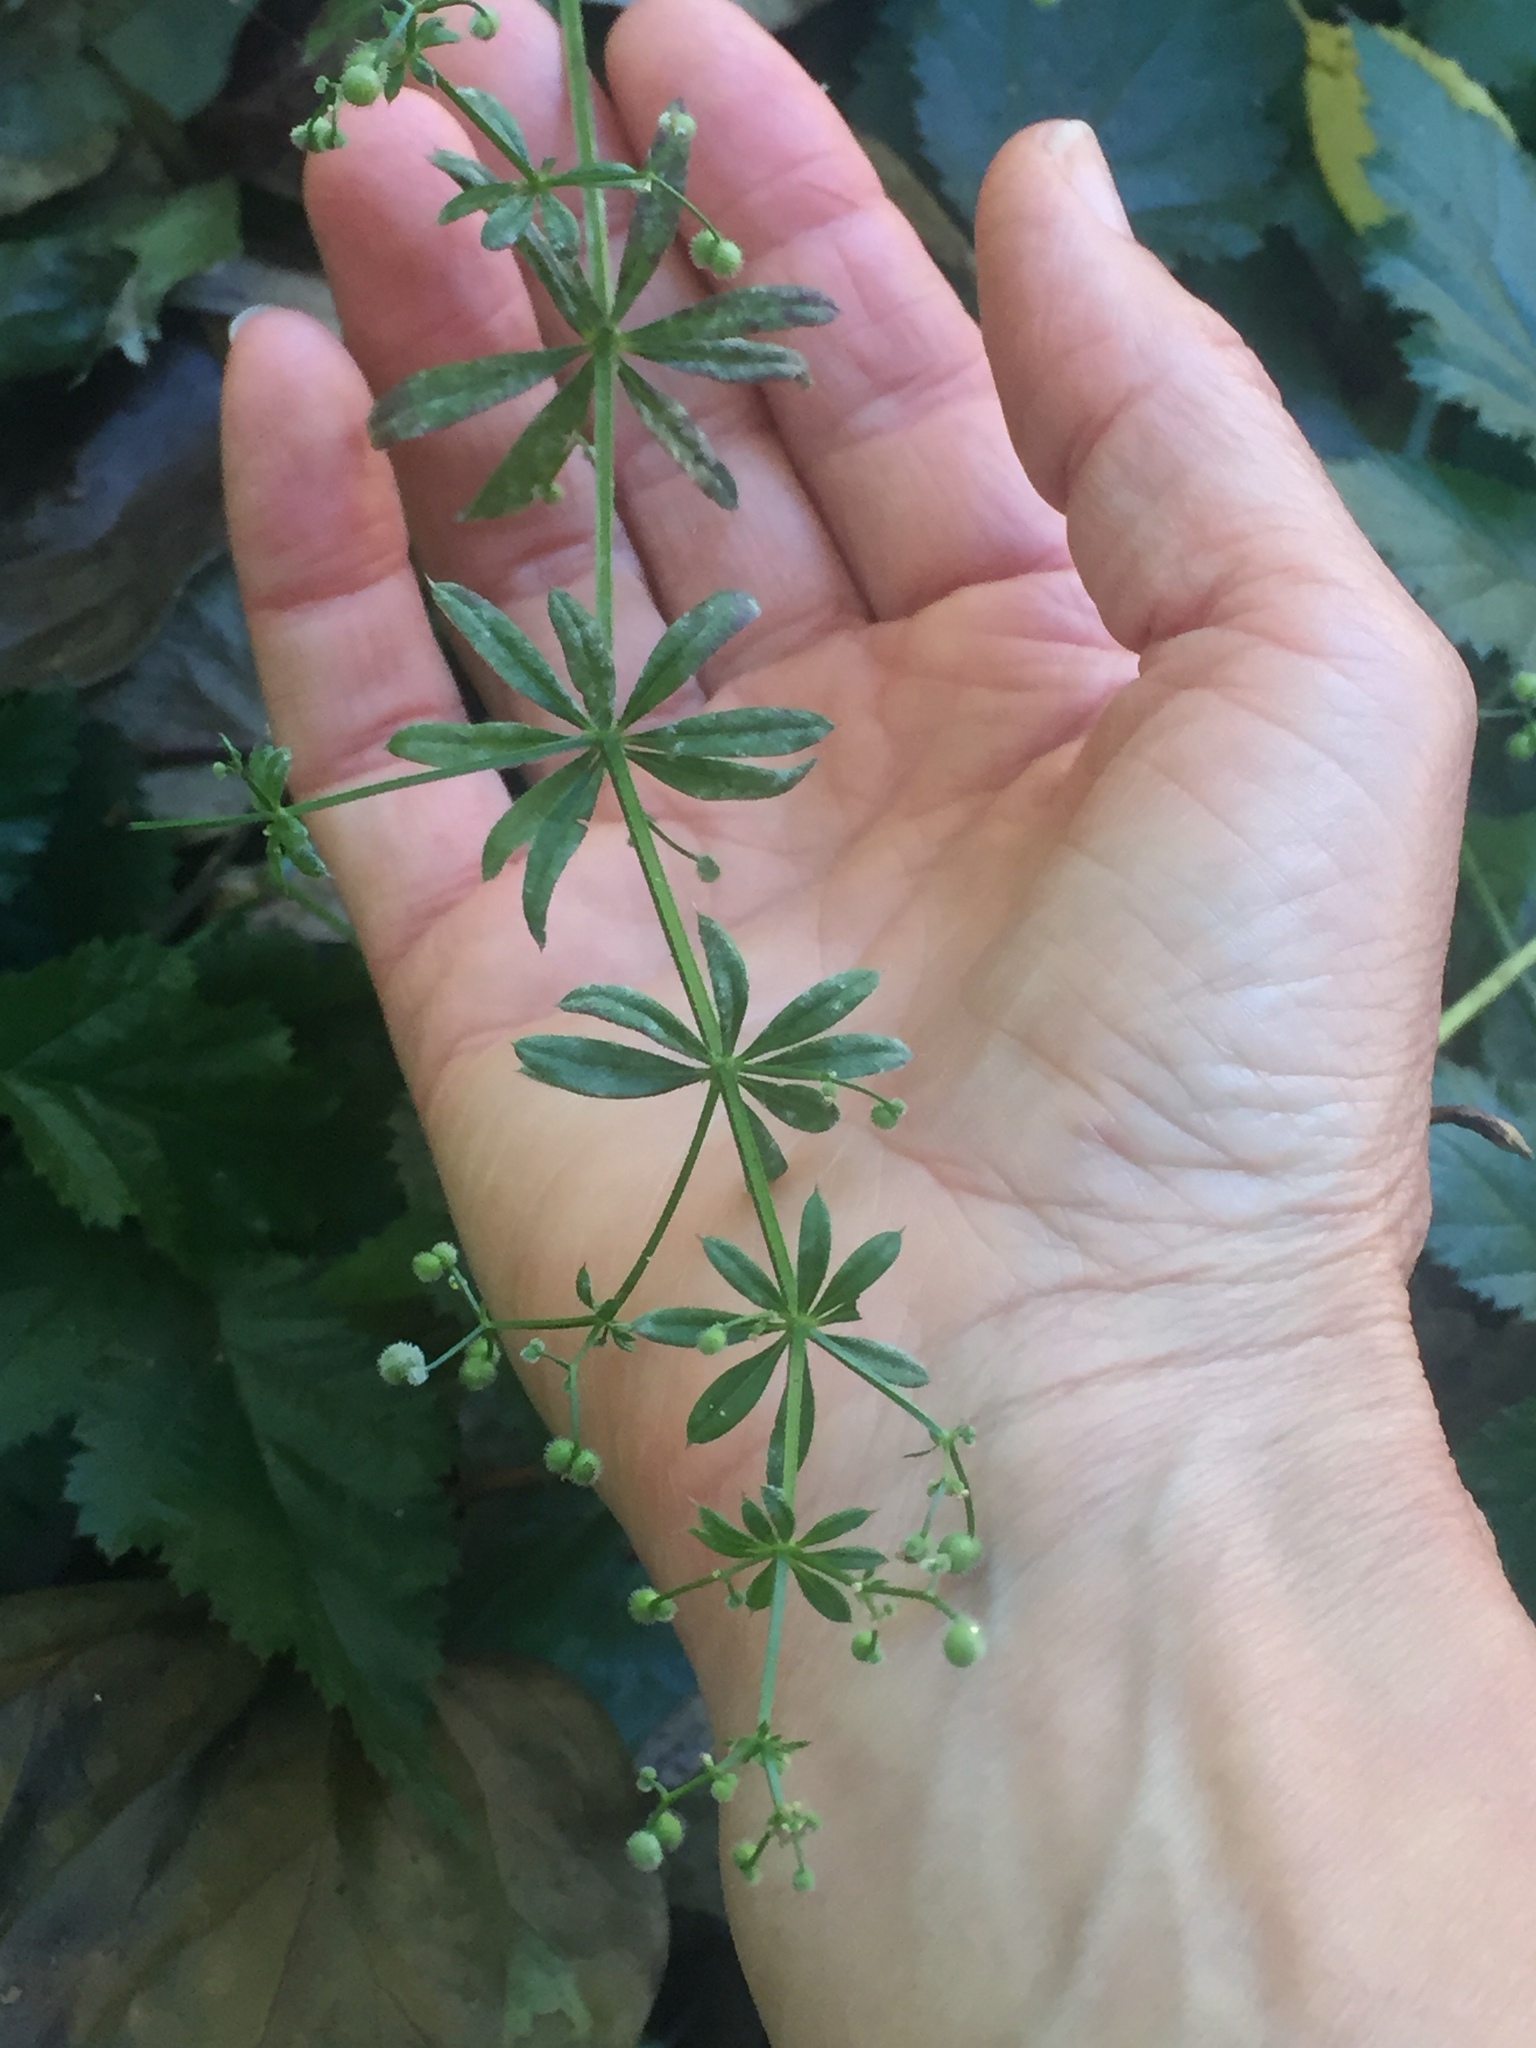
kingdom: Plantae
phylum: Tracheophyta
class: Magnoliopsida
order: Gentianales
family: Rubiaceae
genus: Galium
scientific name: Galium aparine
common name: Cleavers
